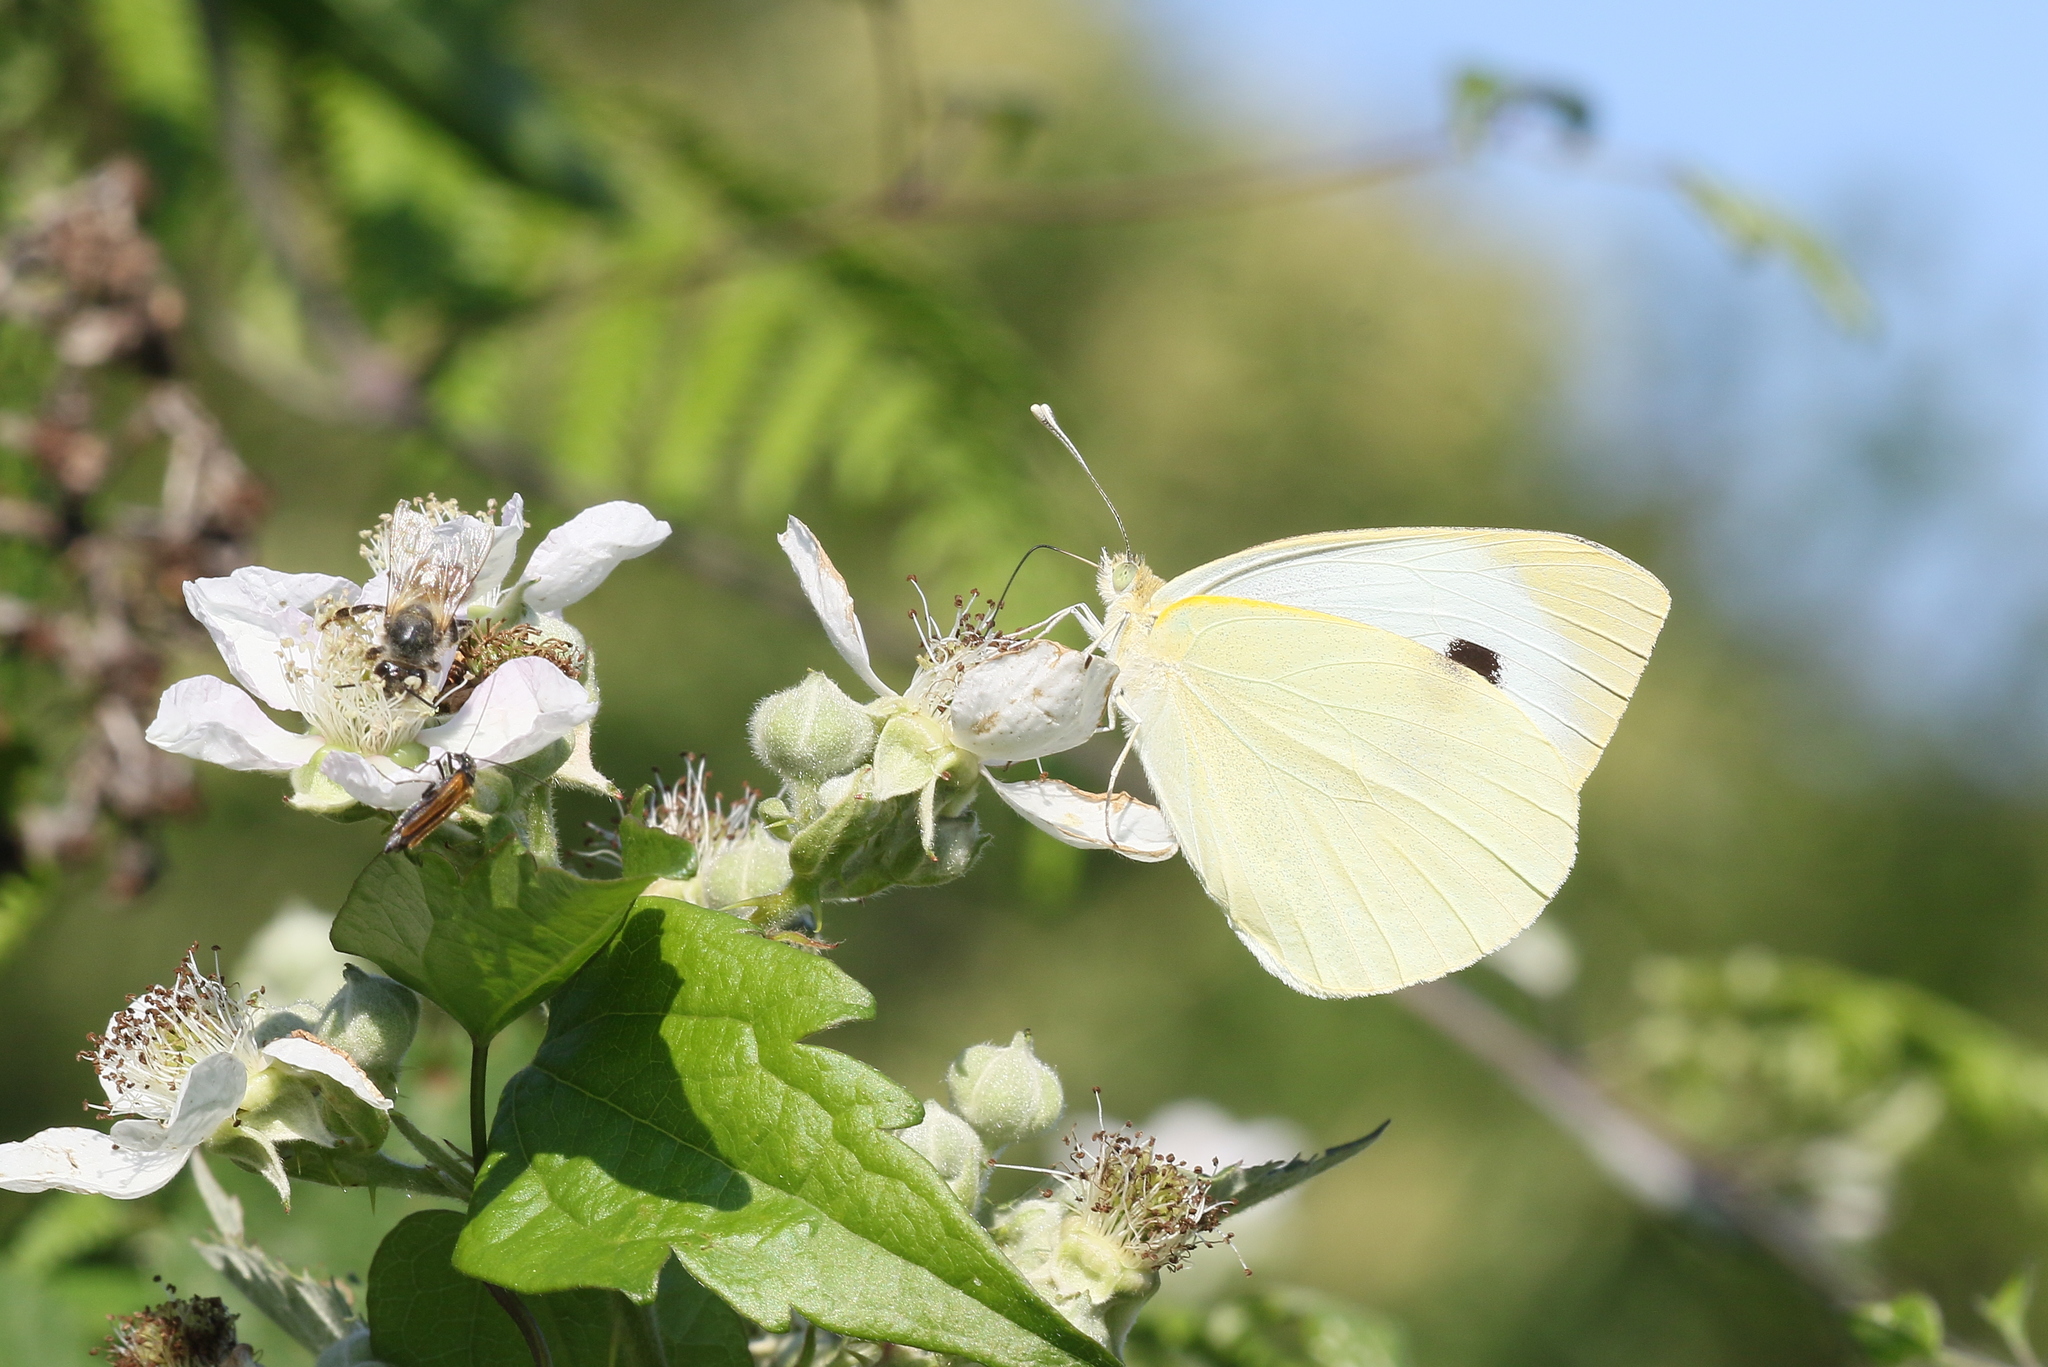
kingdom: Animalia
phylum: Arthropoda
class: Insecta
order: Lepidoptera
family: Pieridae
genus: Pieris
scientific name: Pieris brassicae
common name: Large white
